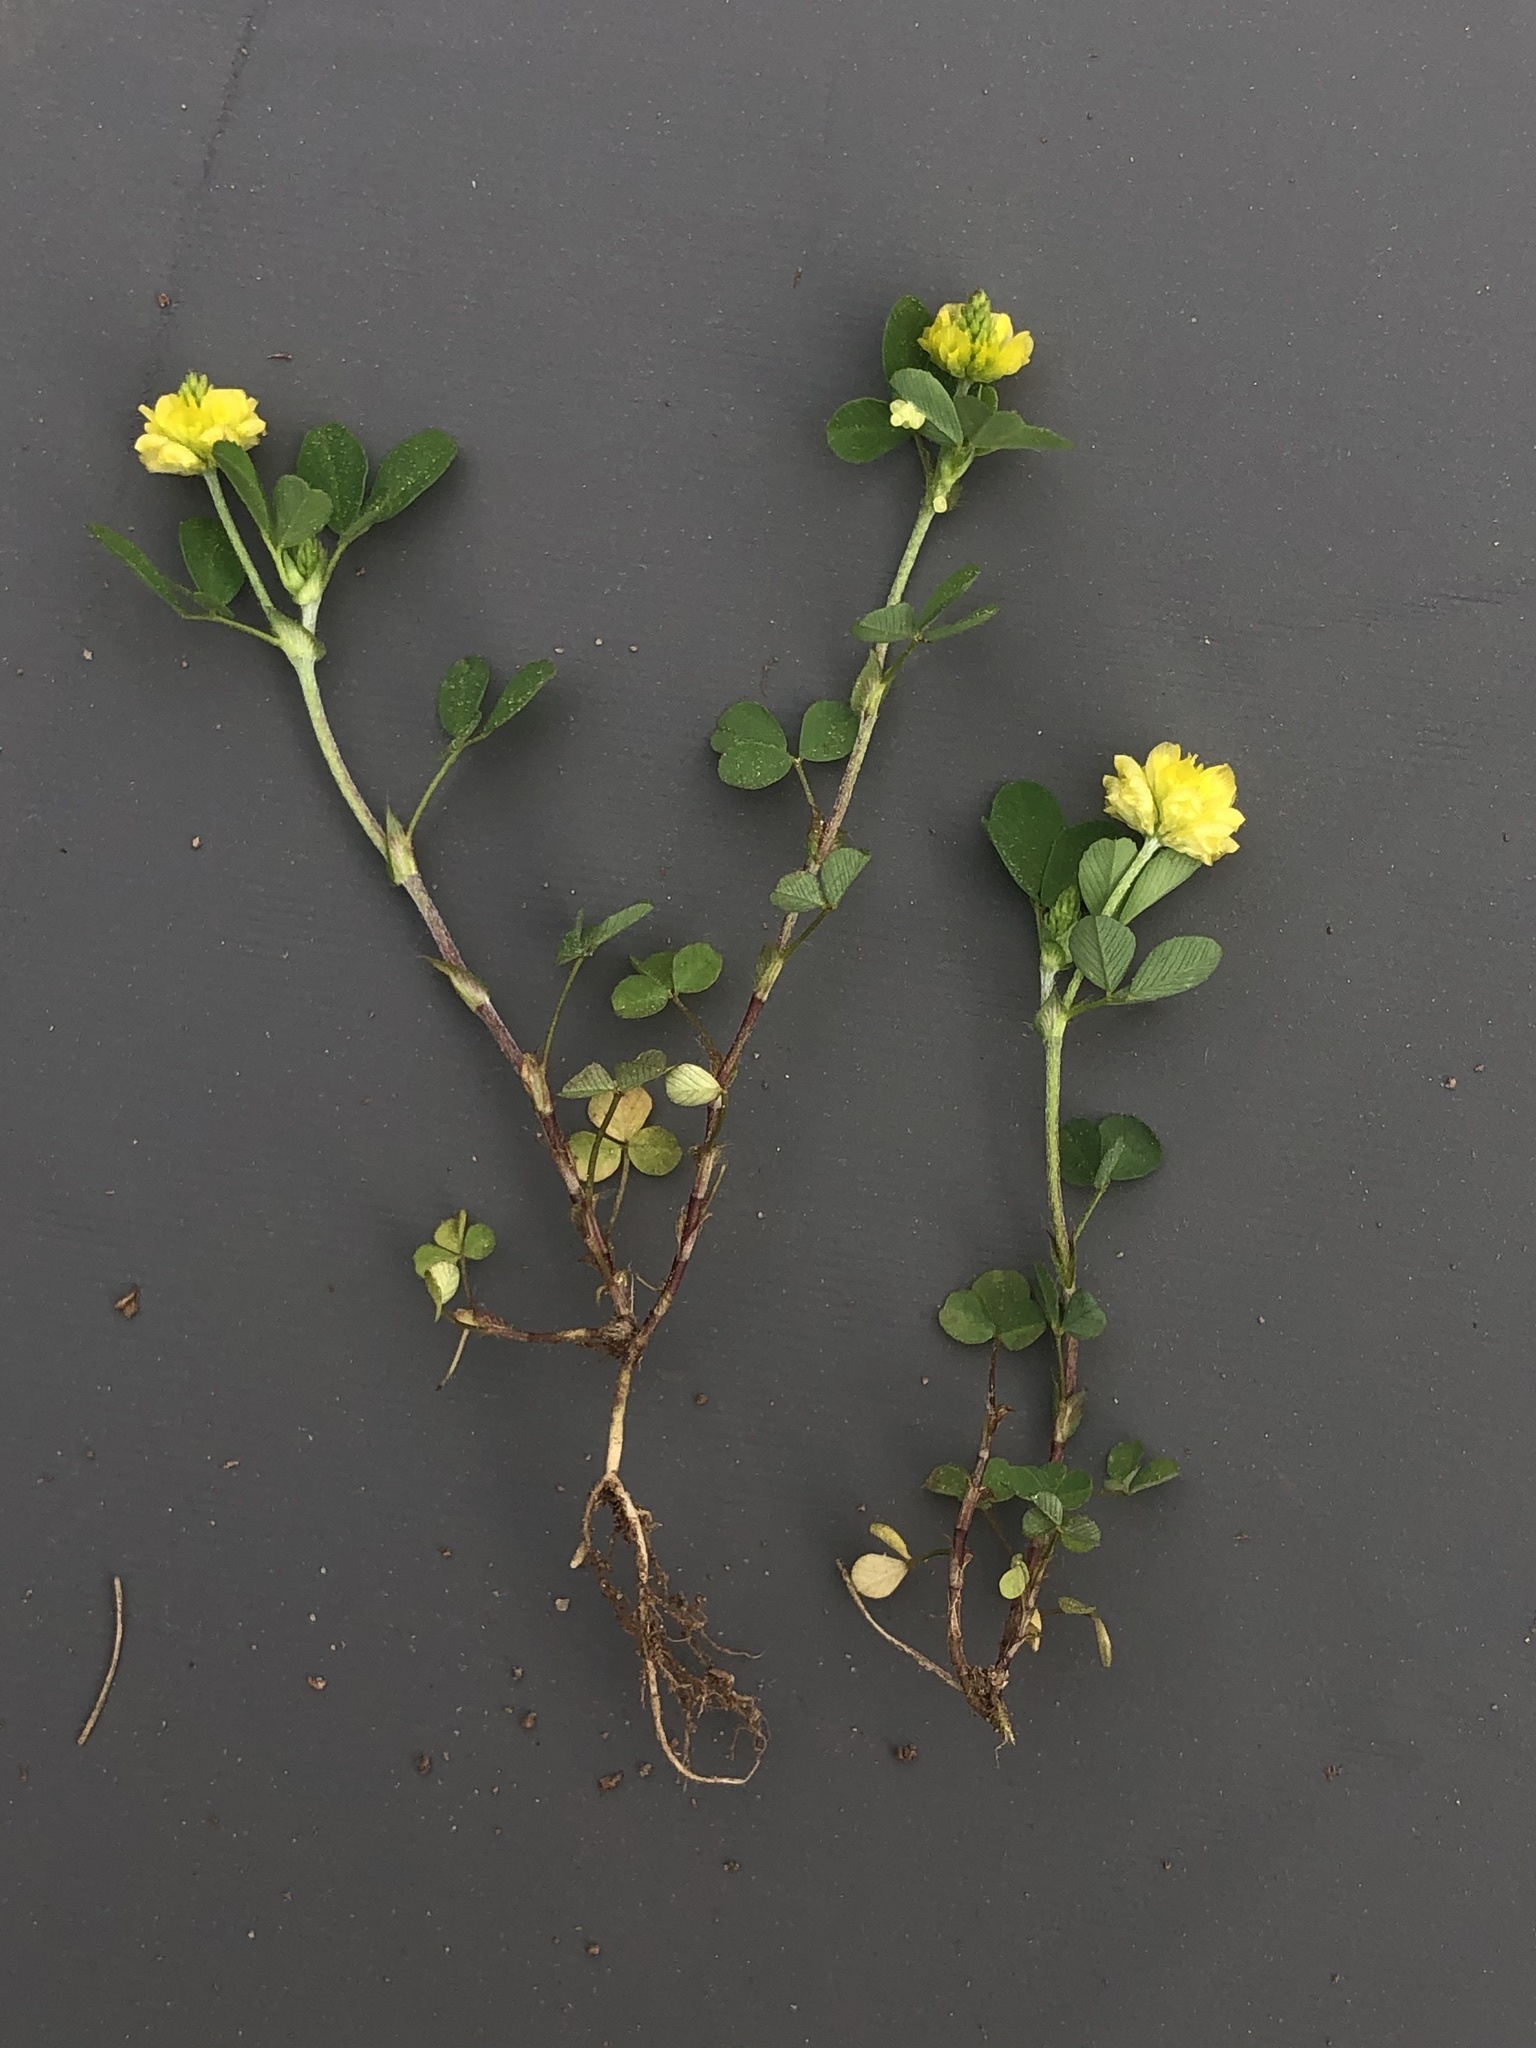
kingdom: Plantae
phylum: Tracheophyta
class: Magnoliopsida
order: Fabales
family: Fabaceae
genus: Trifolium
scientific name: Trifolium campestre
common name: Field clover
